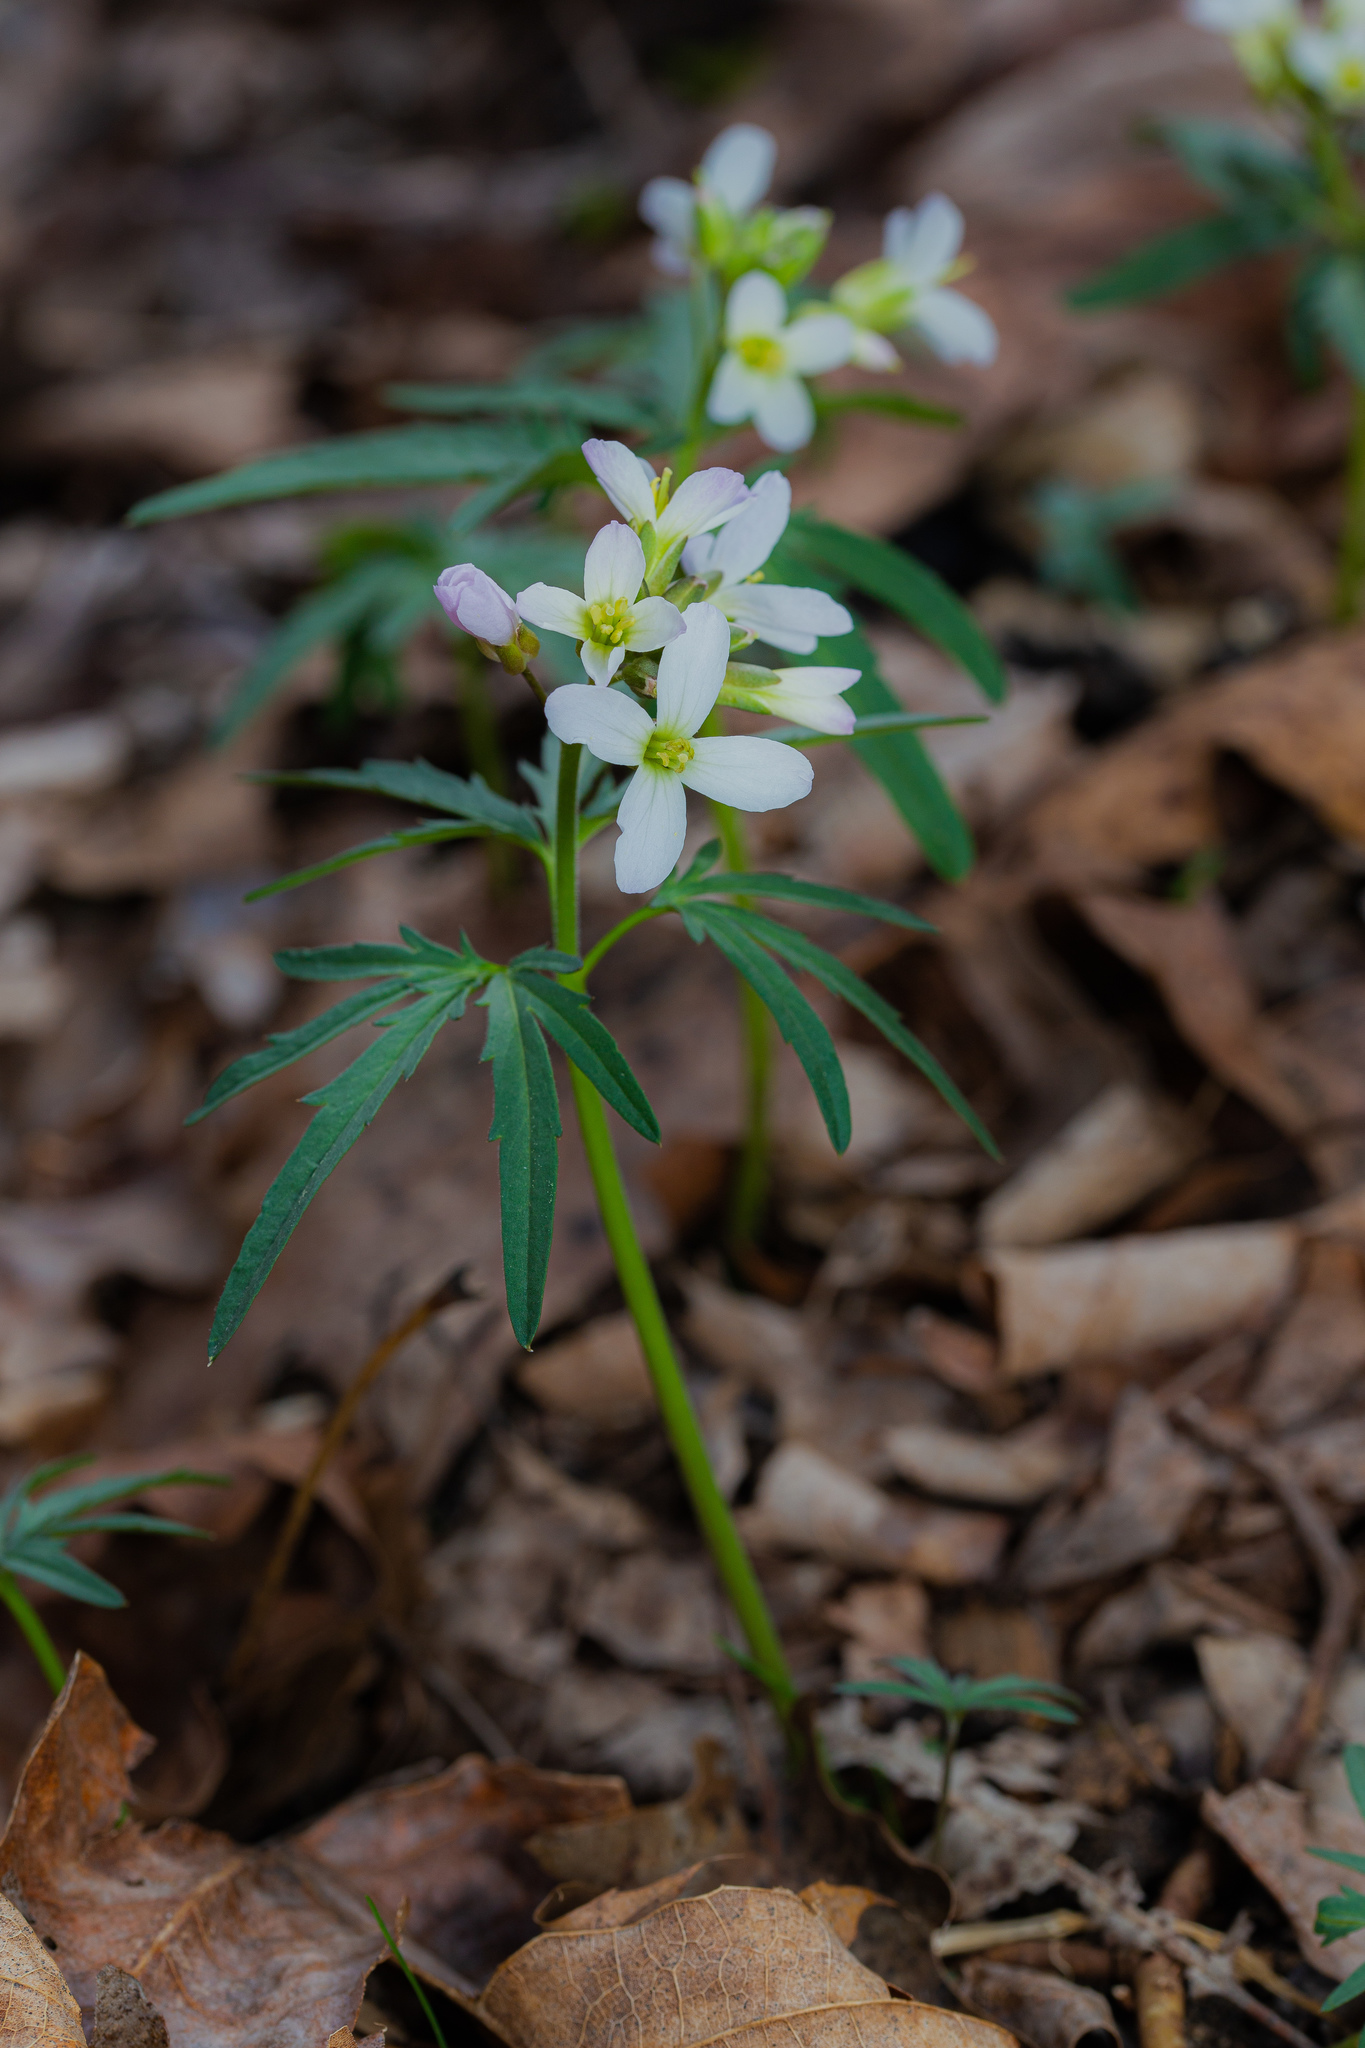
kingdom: Plantae
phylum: Tracheophyta
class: Magnoliopsida
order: Brassicales
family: Brassicaceae
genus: Cardamine
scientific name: Cardamine concatenata
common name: Cut-leaf toothcup
